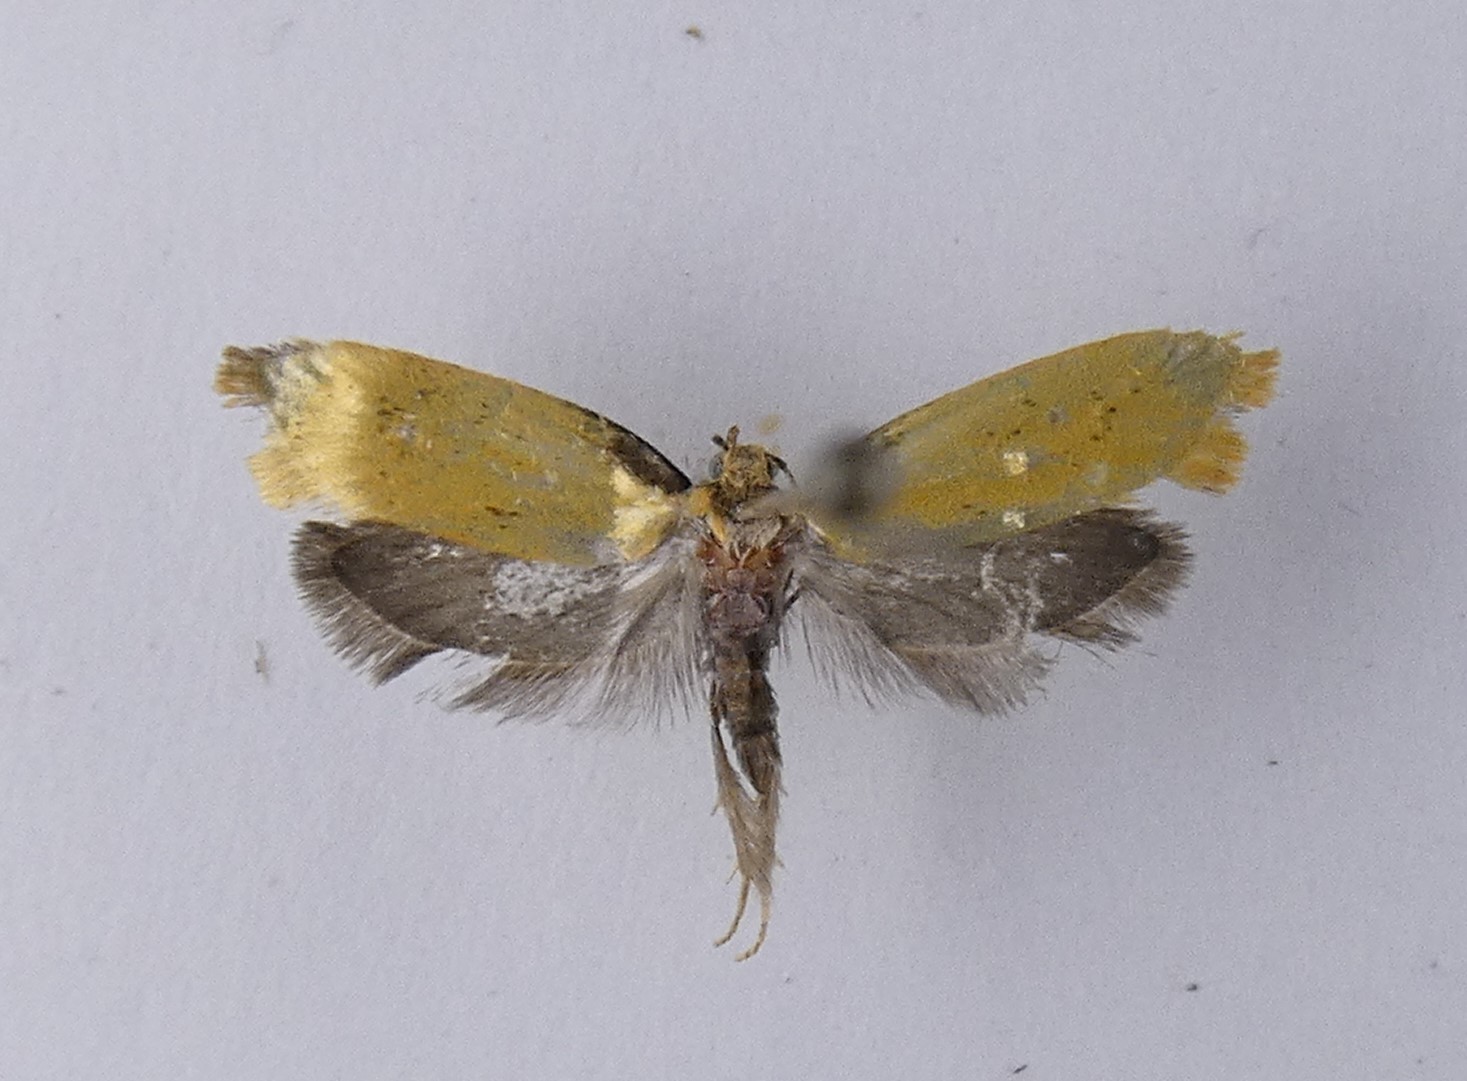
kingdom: Animalia
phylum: Arthropoda
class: Insecta
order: Lepidoptera
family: Oecophoridae
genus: Tingena
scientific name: Tingena armigerella
